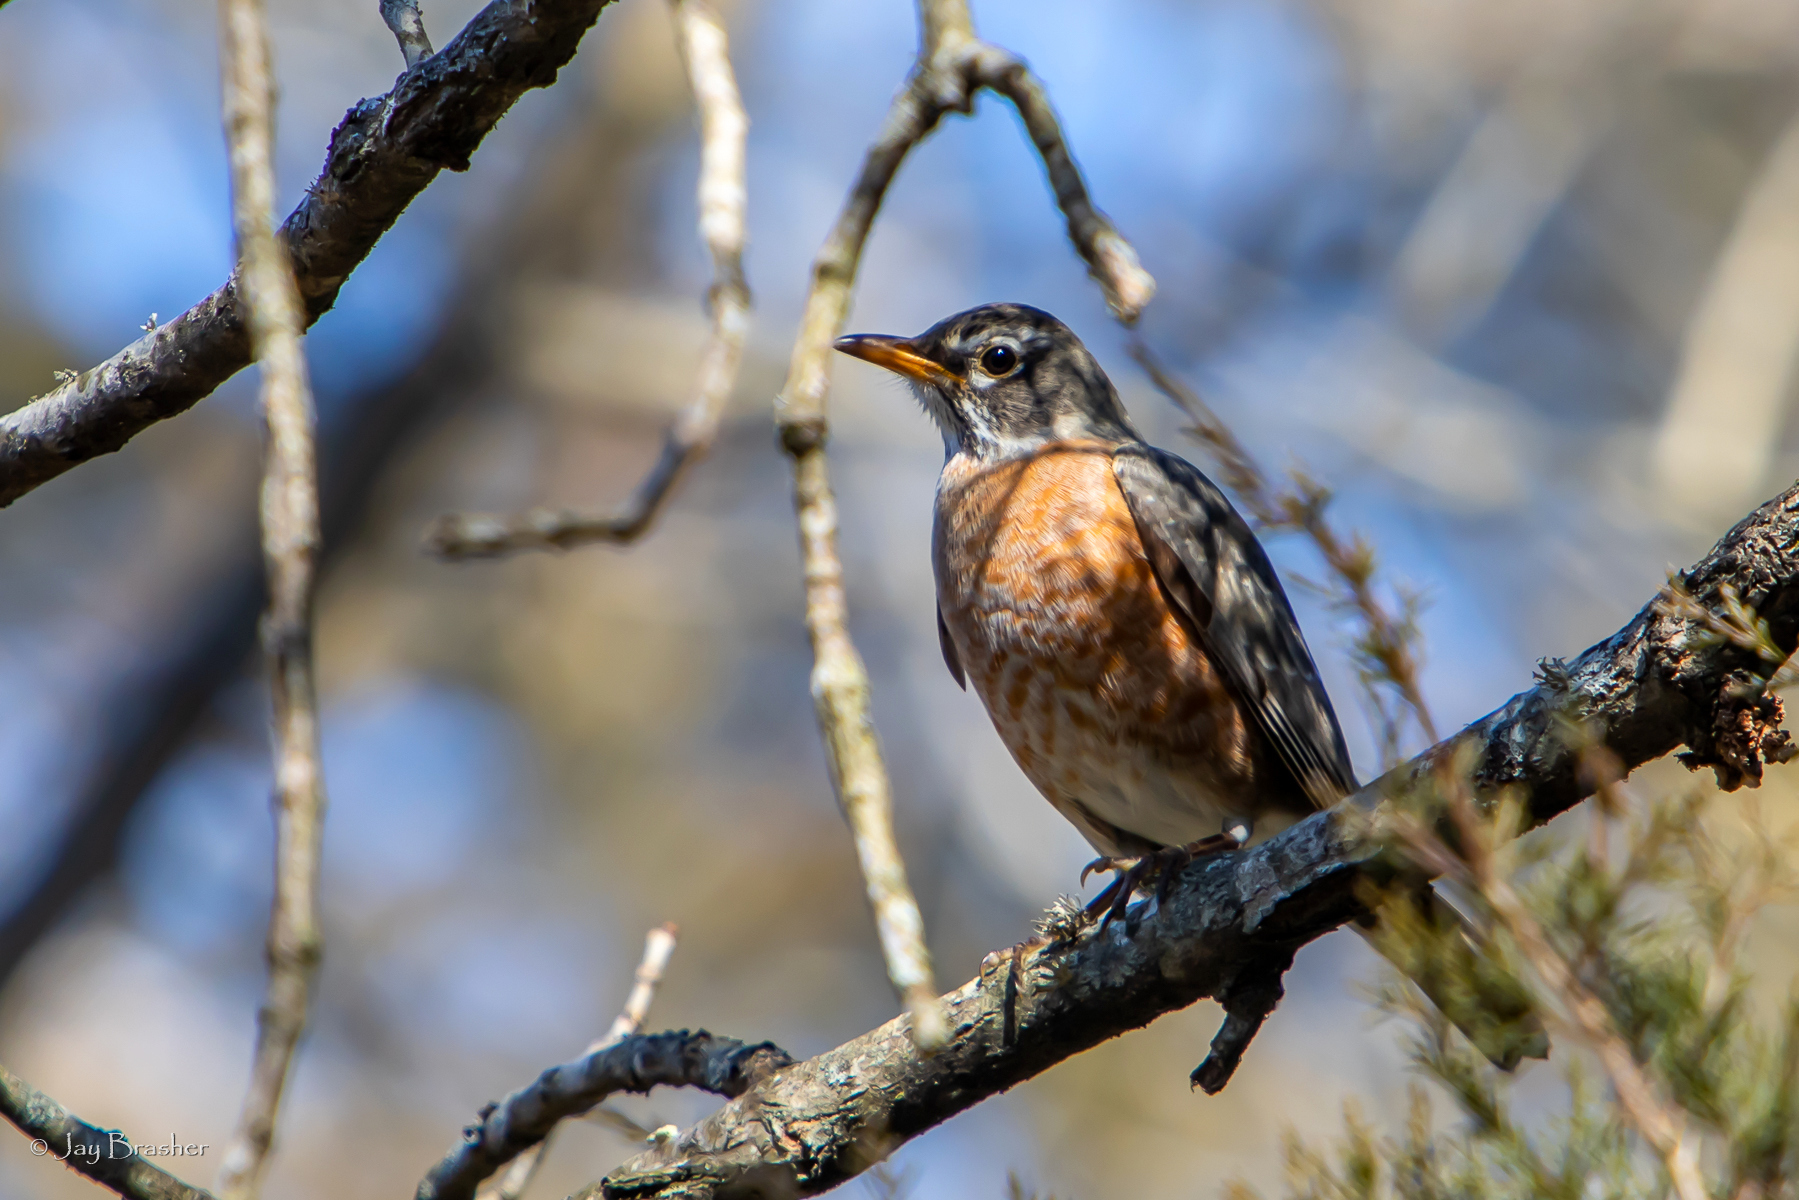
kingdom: Animalia
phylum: Chordata
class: Aves
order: Passeriformes
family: Turdidae
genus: Turdus
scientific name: Turdus migratorius
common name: American robin
